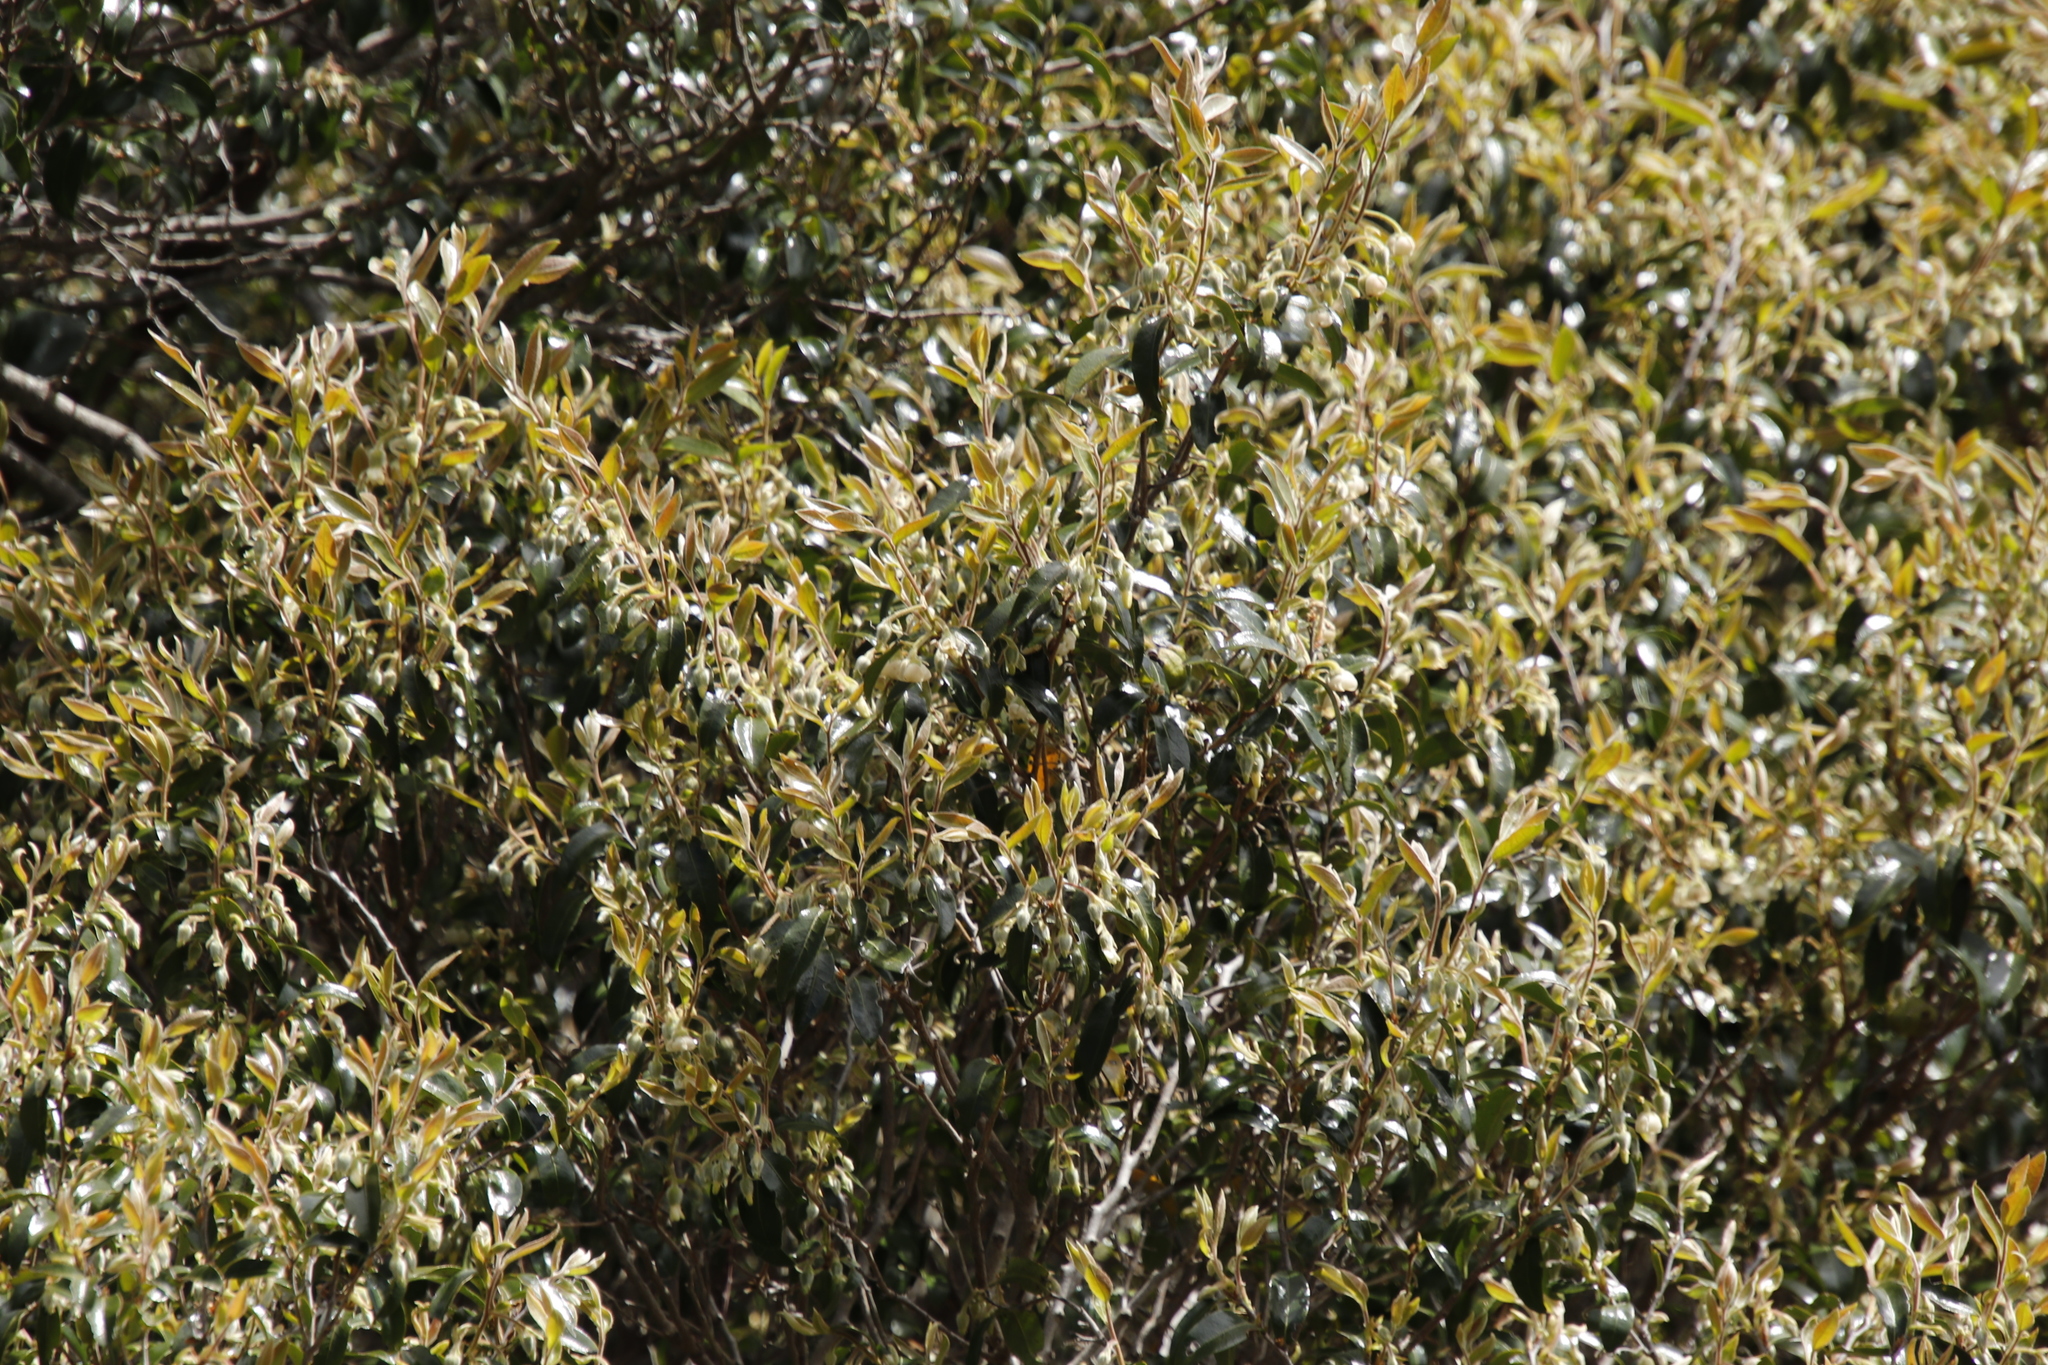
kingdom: Plantae
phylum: Tracheophyta
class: Magnoliopsida
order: Ericales
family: Ebenaceae
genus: Diospyros
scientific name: Diospyros whyteana
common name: Bladder-nut
